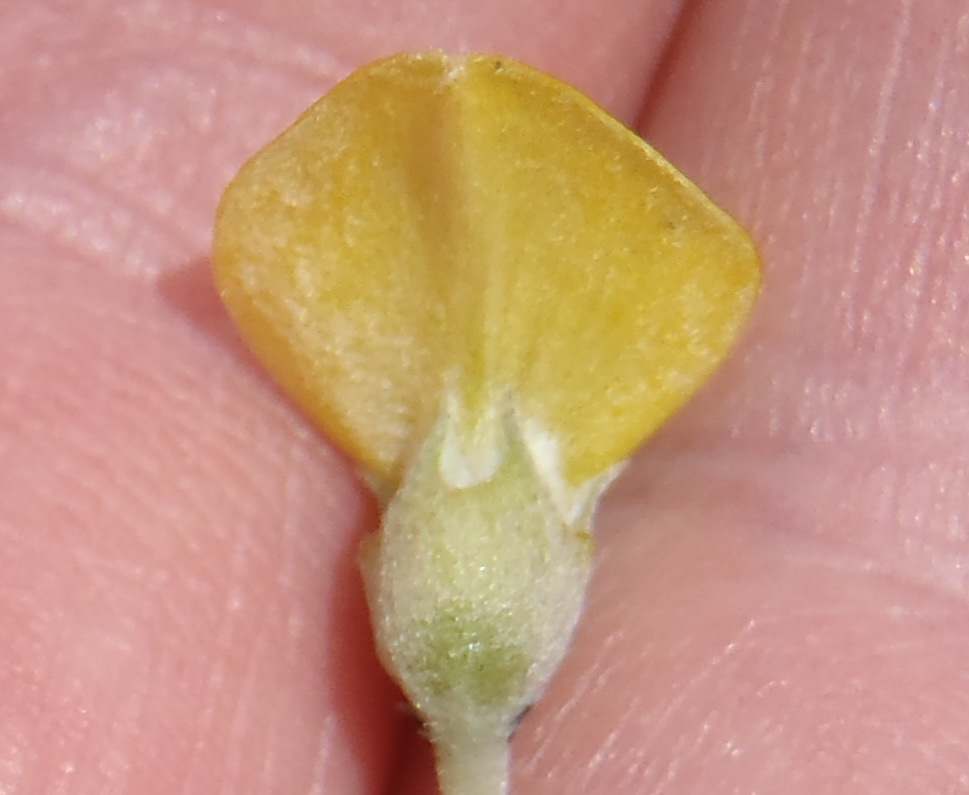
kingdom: Plantae
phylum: Tracheophyta
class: Magnoliopsida
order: Fabales
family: Fabaceae
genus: Aspalathus
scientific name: Aspalathus burchelliana
